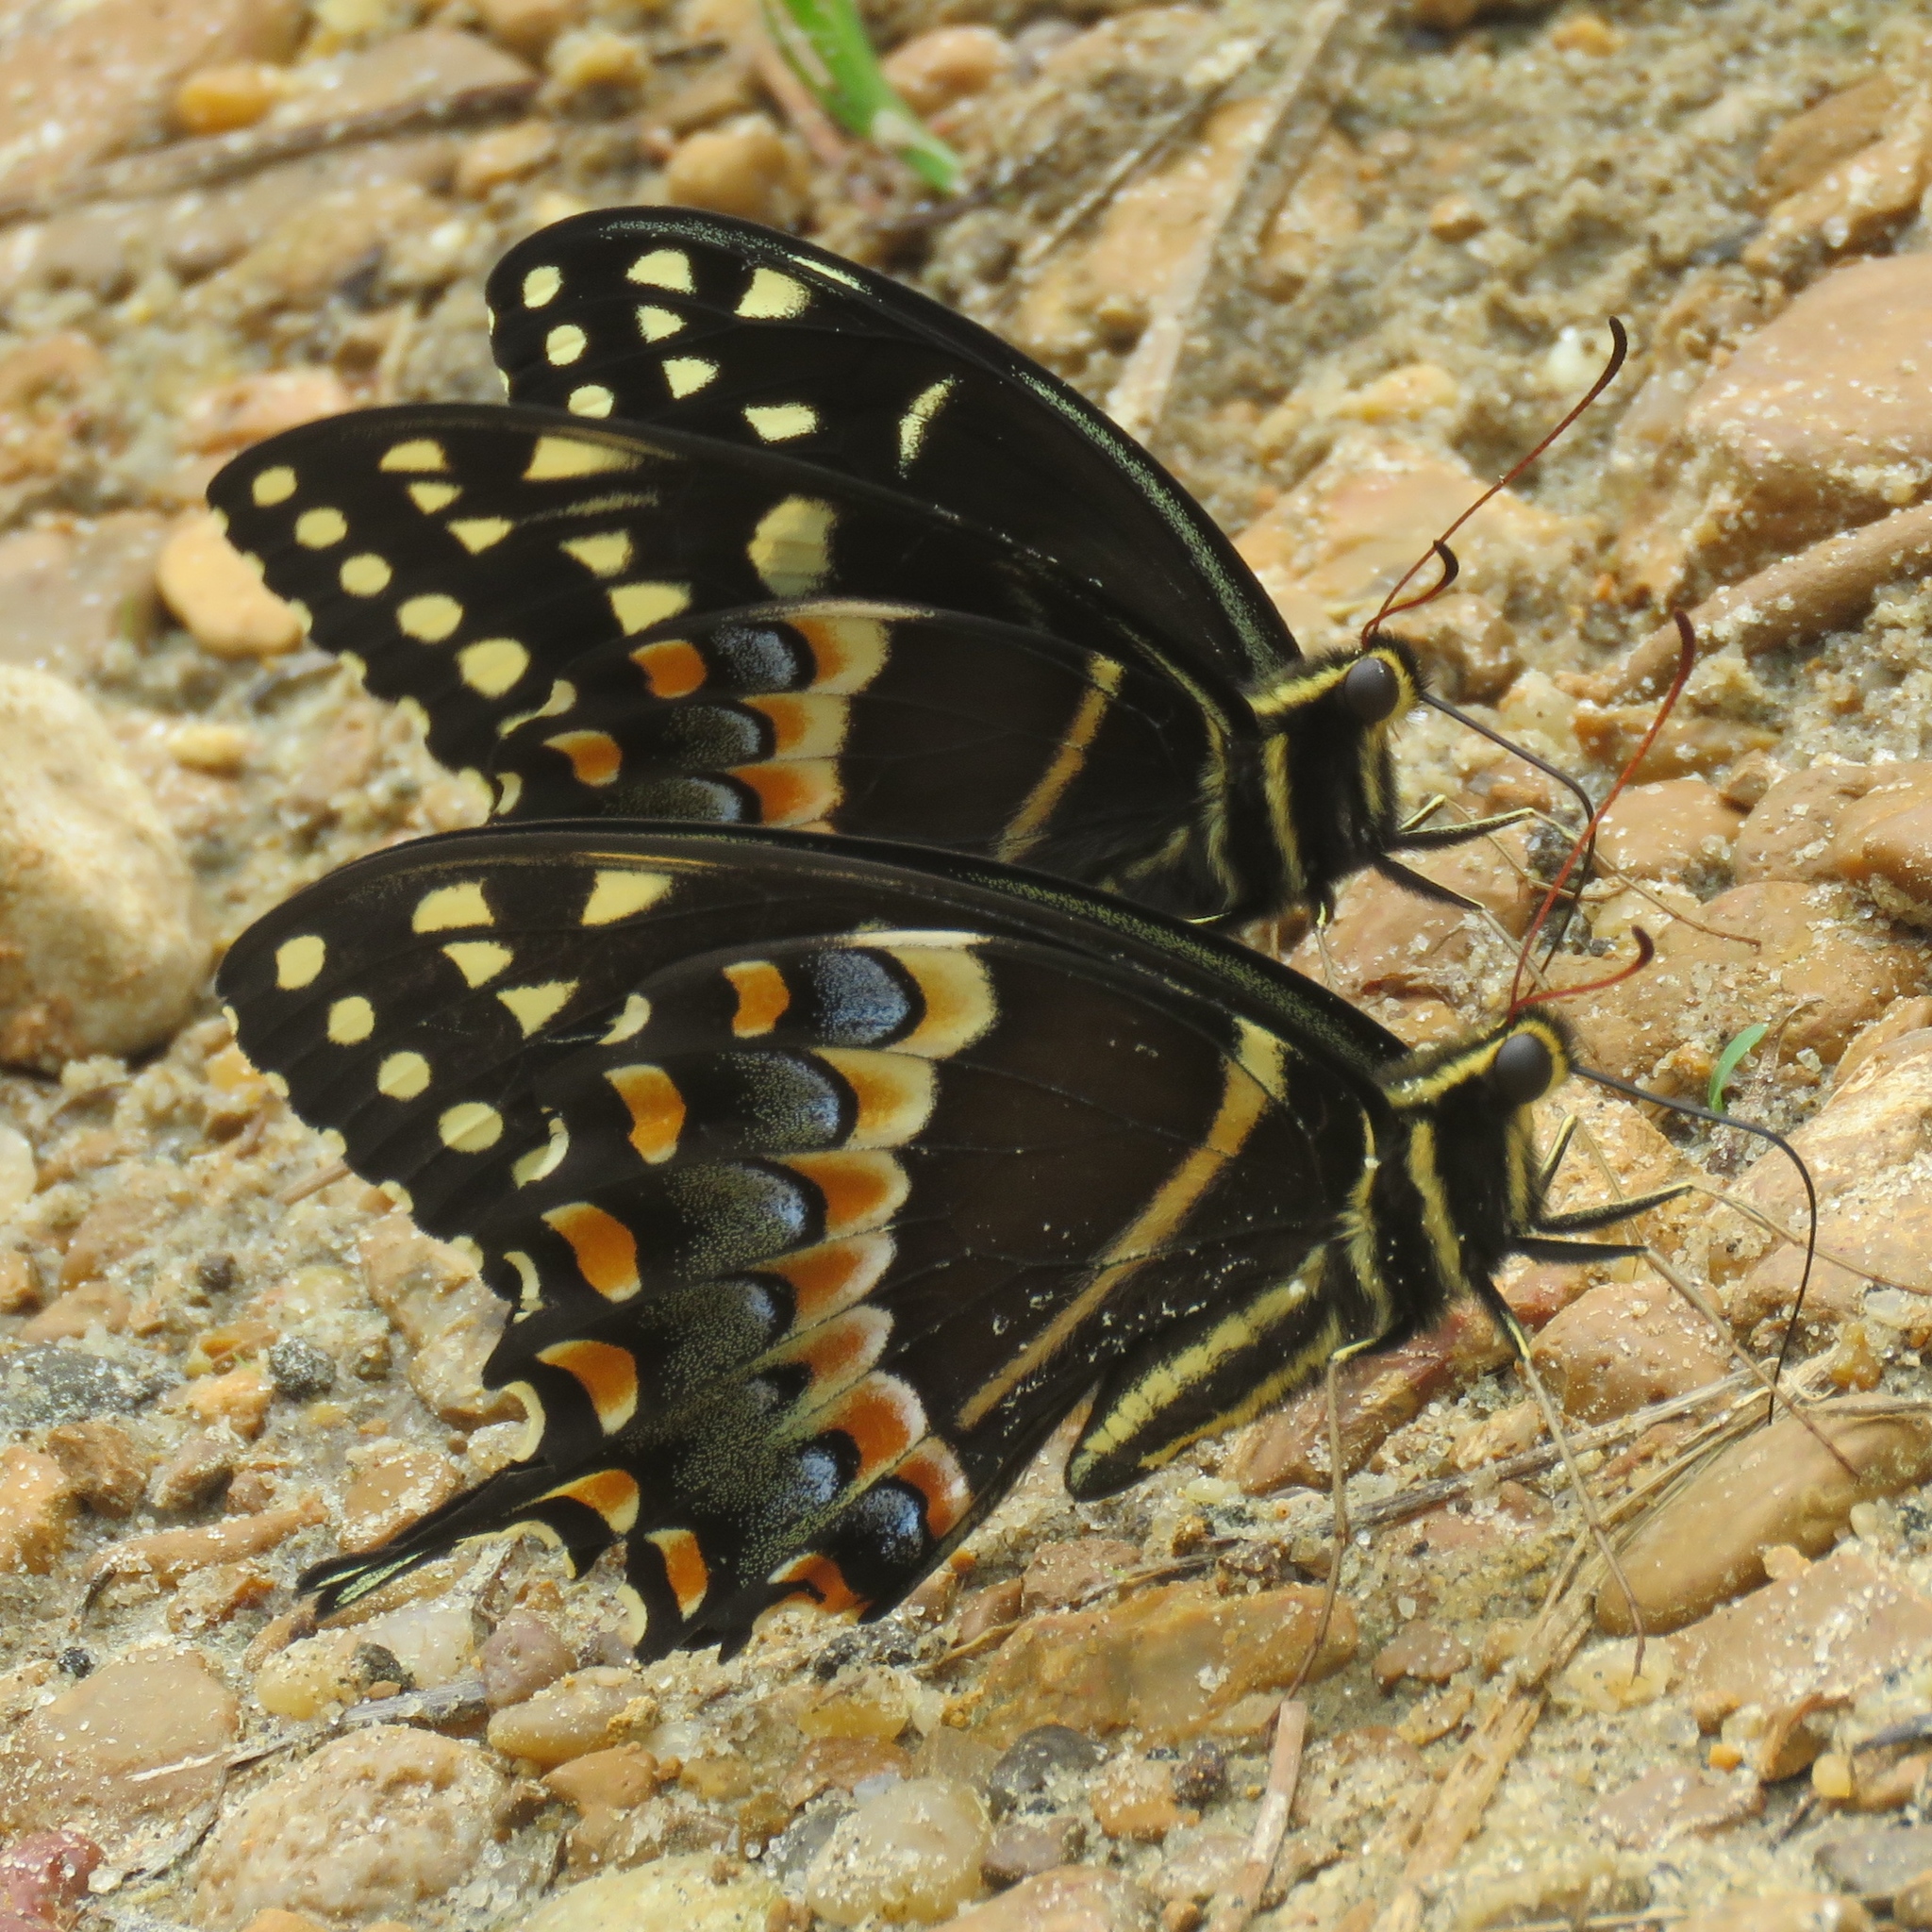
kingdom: Animalia
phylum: Arthropoda
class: Insecta
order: Lepidoptera
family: Papilionidae
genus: Papilio
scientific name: Papilio palamedes
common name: Palamedes swallowtail
